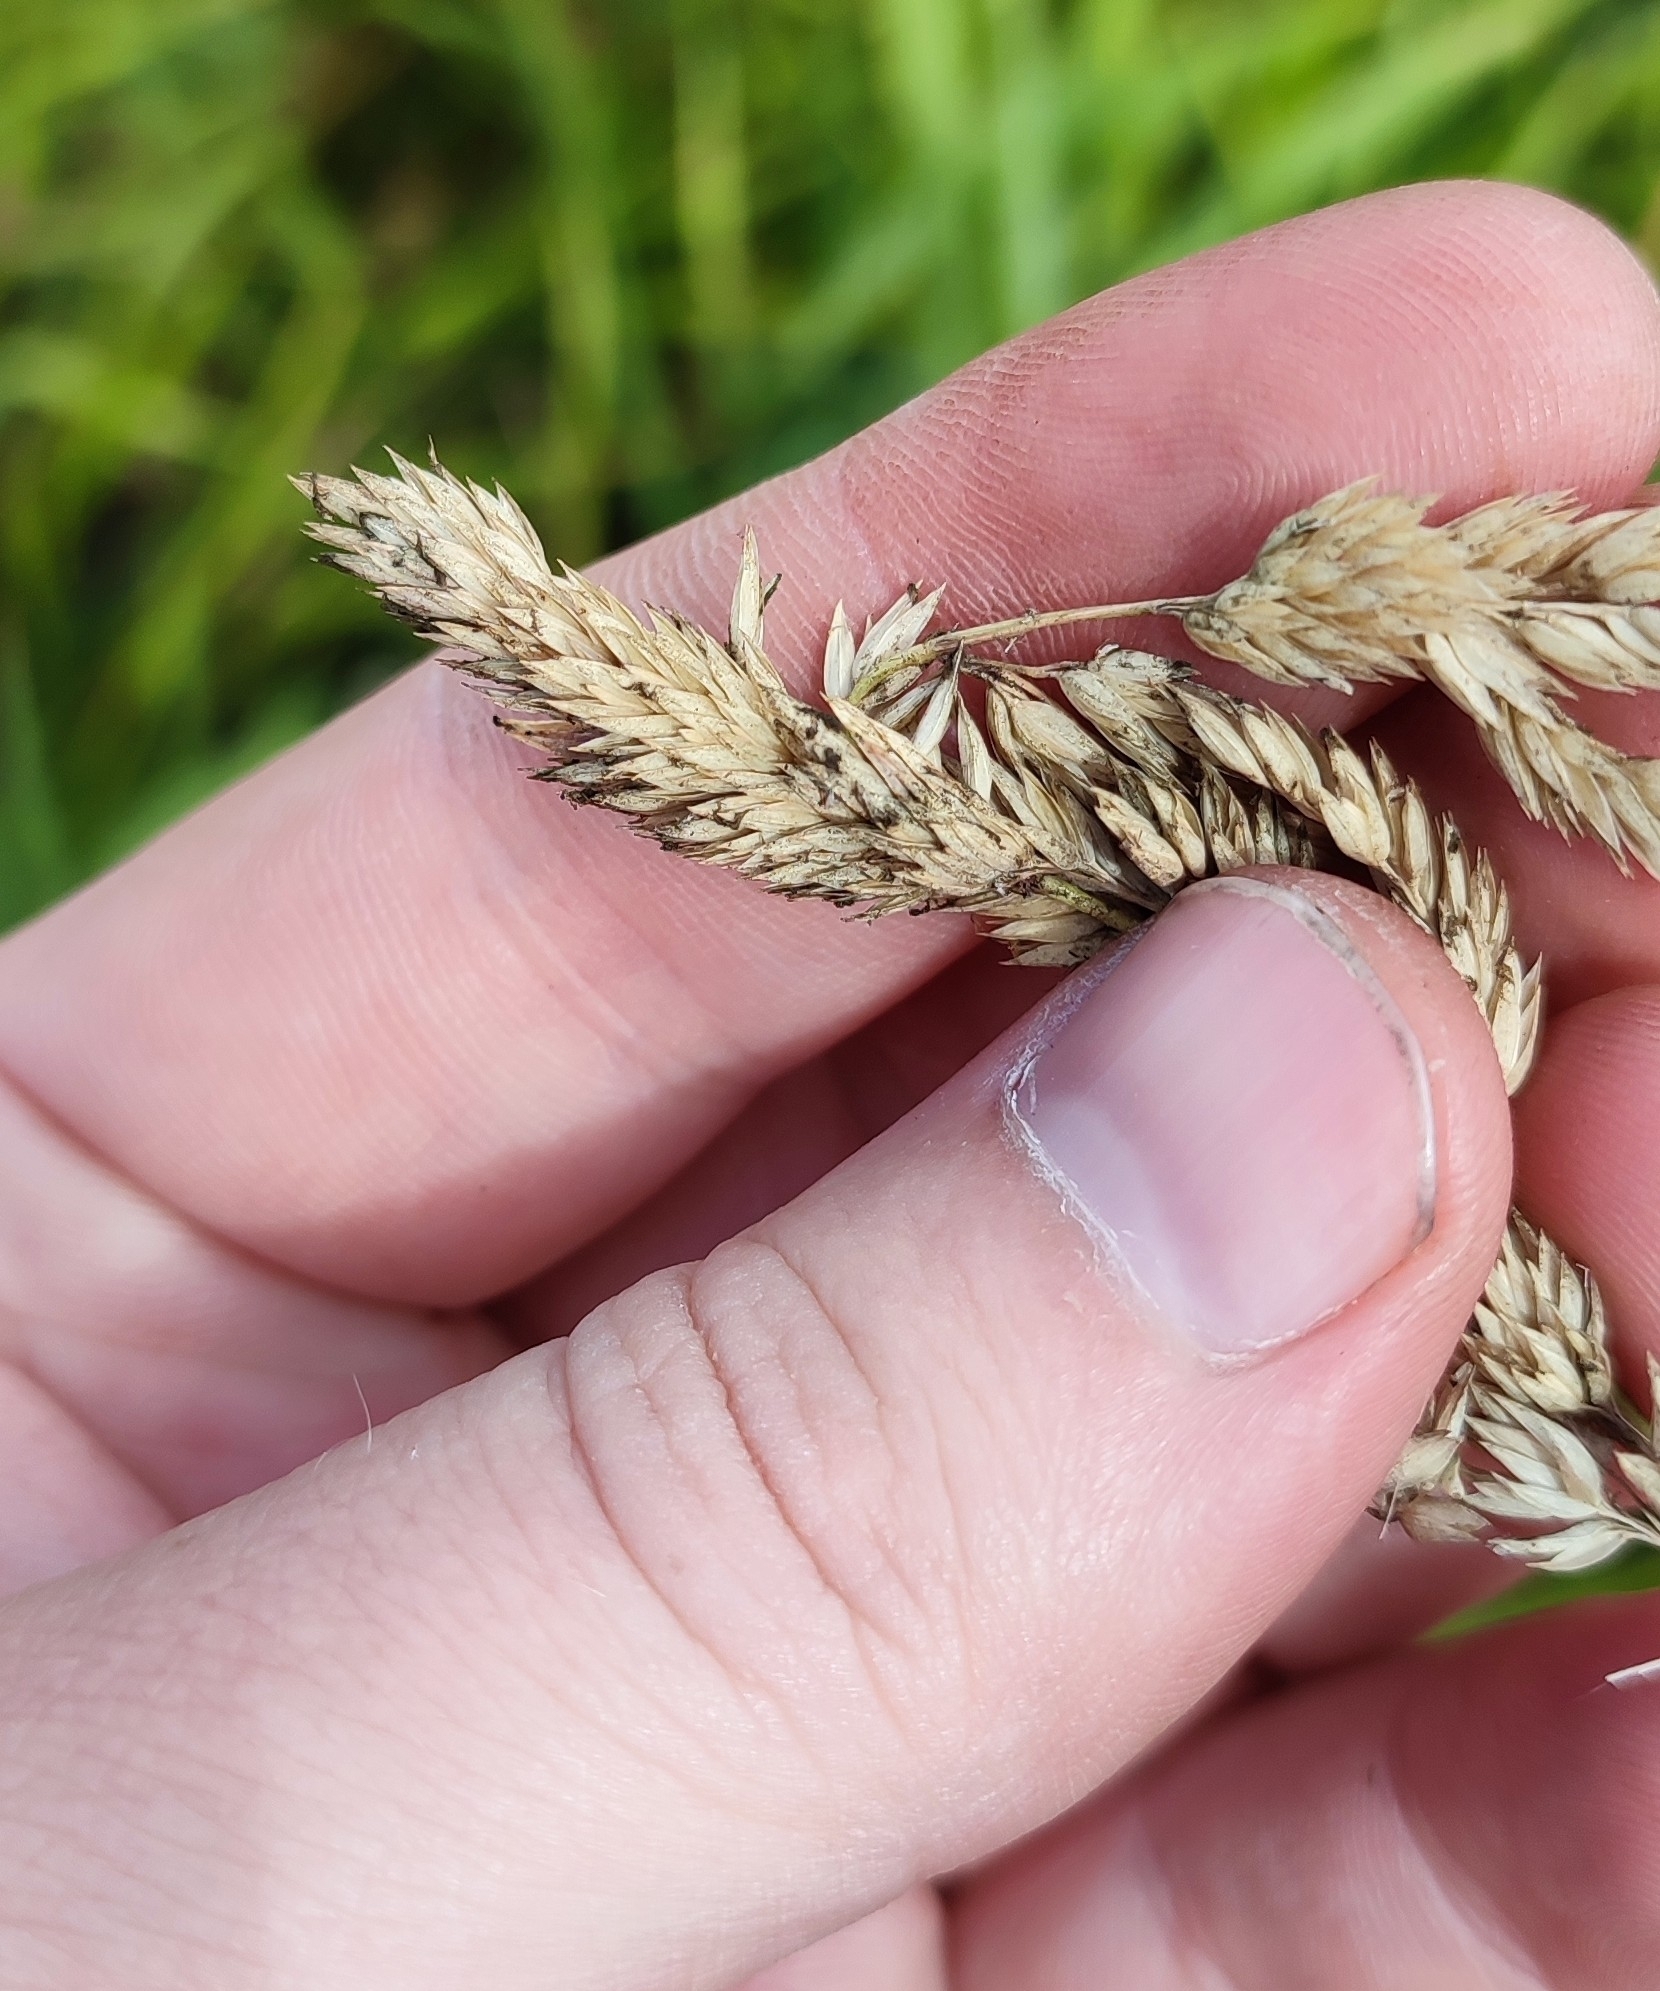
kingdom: Plantae
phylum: Tracheophyta
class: Liliopsida
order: Poales
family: Poaceae
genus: Phalaris
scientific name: Phalaris arundinacea
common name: Reed canary-grass
